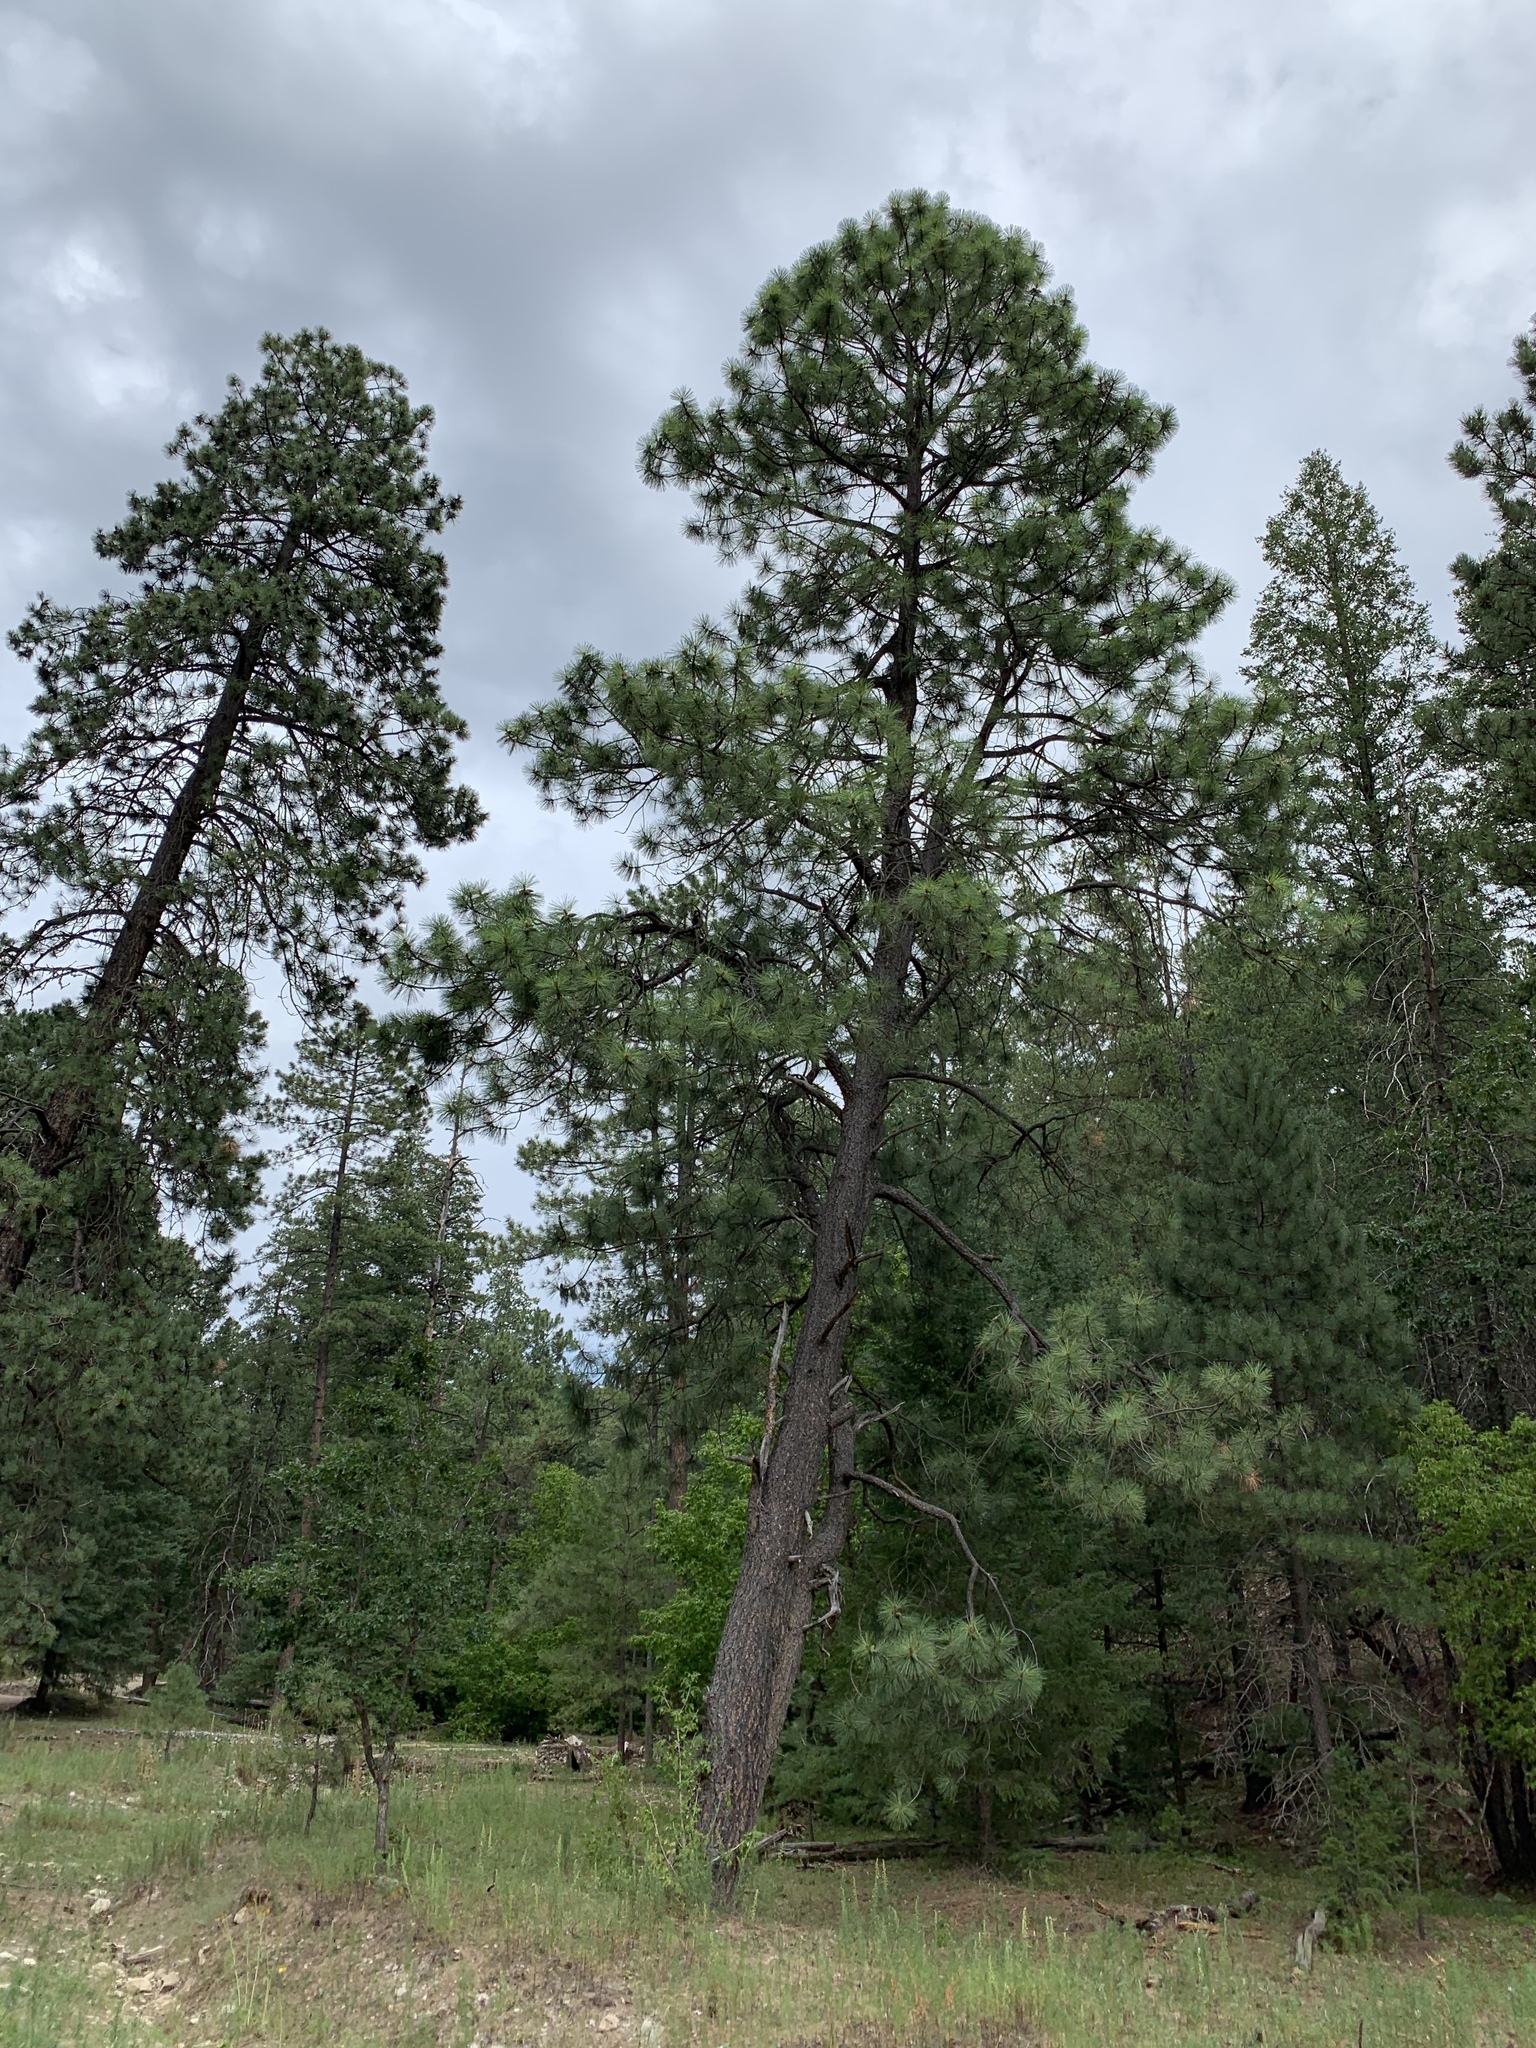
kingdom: Plantae
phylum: Tracheophyta
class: Pinopsida
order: Pinales
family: Pinaceae
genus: Pinus
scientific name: Pinus ponderosa
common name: Western yellow-pine
